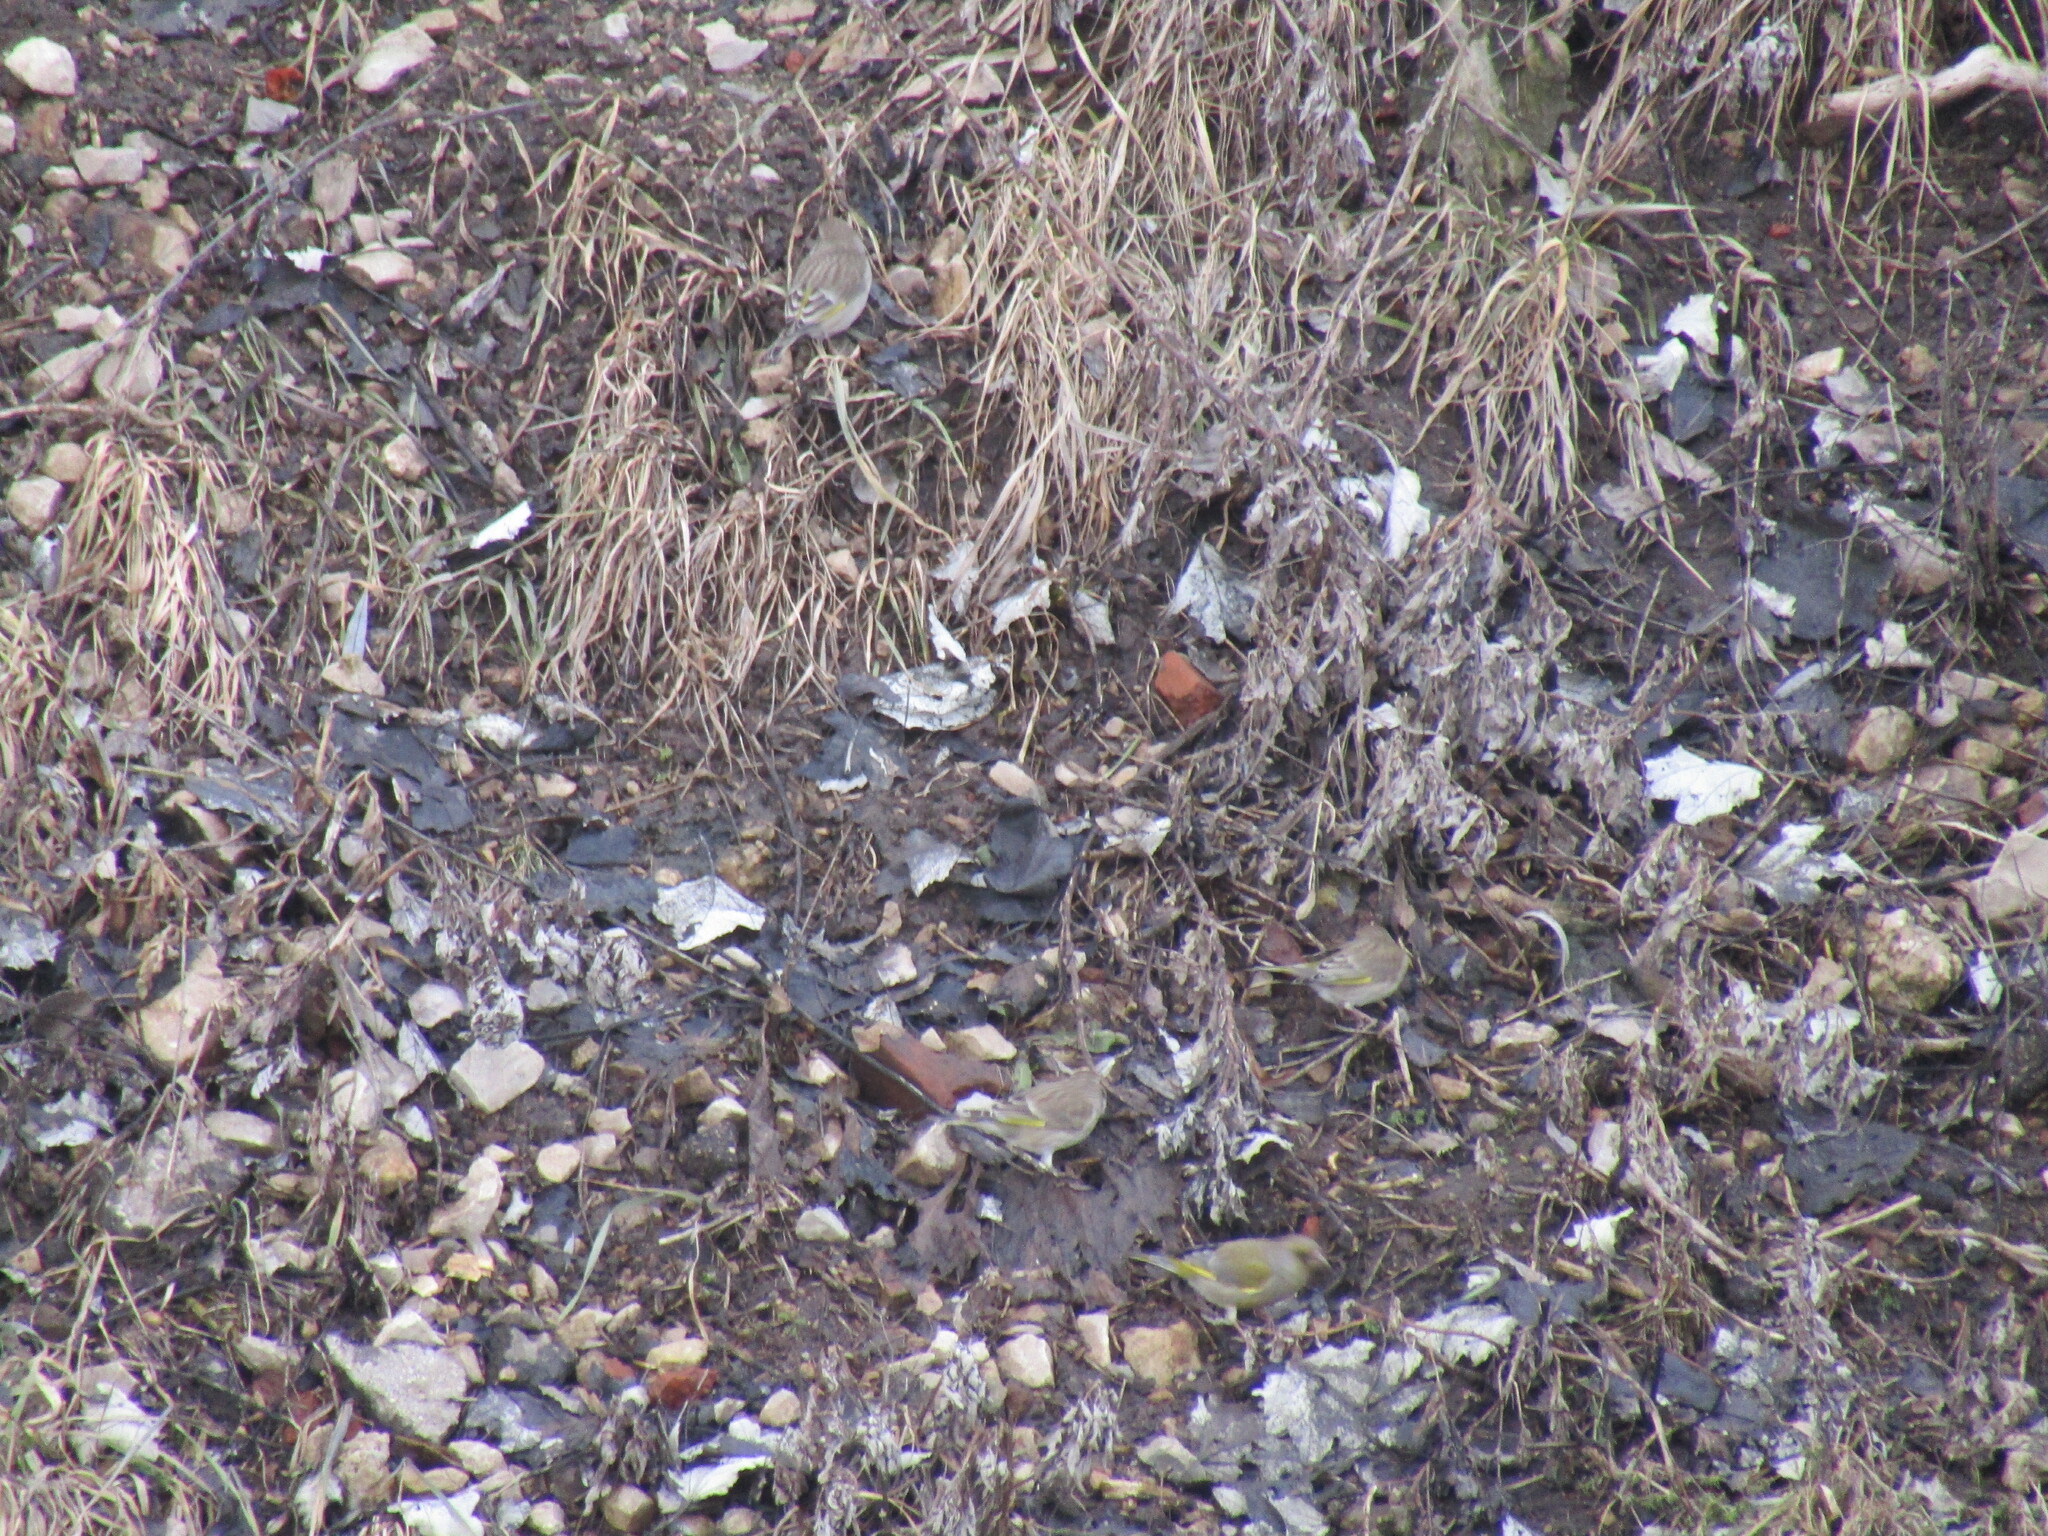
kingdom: Plantae
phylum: Tracheophyta
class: Liliopsida
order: Poales
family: Poaceae
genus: Chloris
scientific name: Chloris chloris
